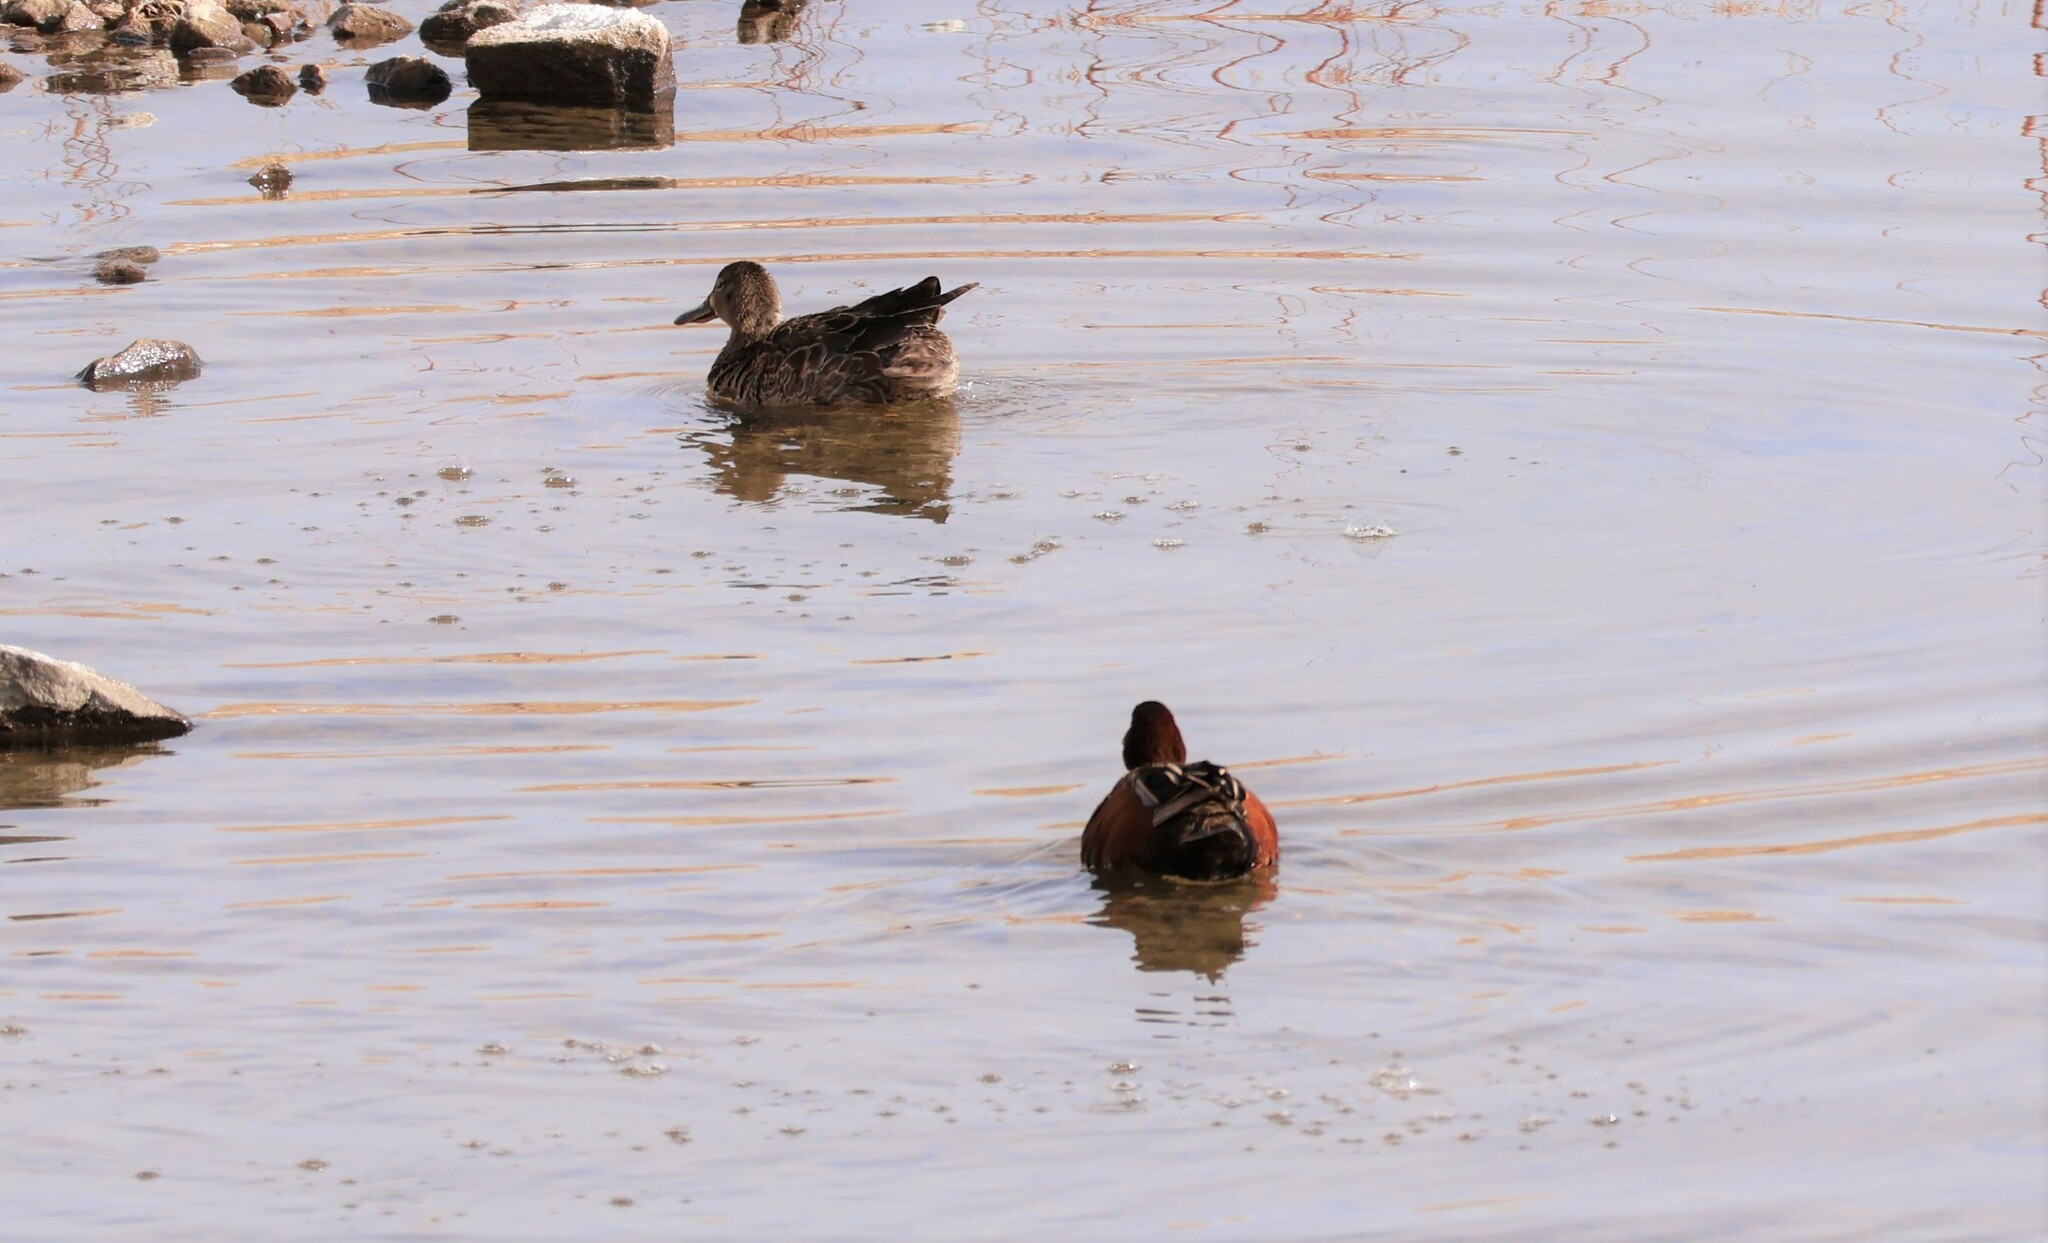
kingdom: Animalia
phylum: Chordata
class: Aves
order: Anseriformes
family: Anatidae
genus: Spatula
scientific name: Spatula cyanoptera
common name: Cinnamon teal
